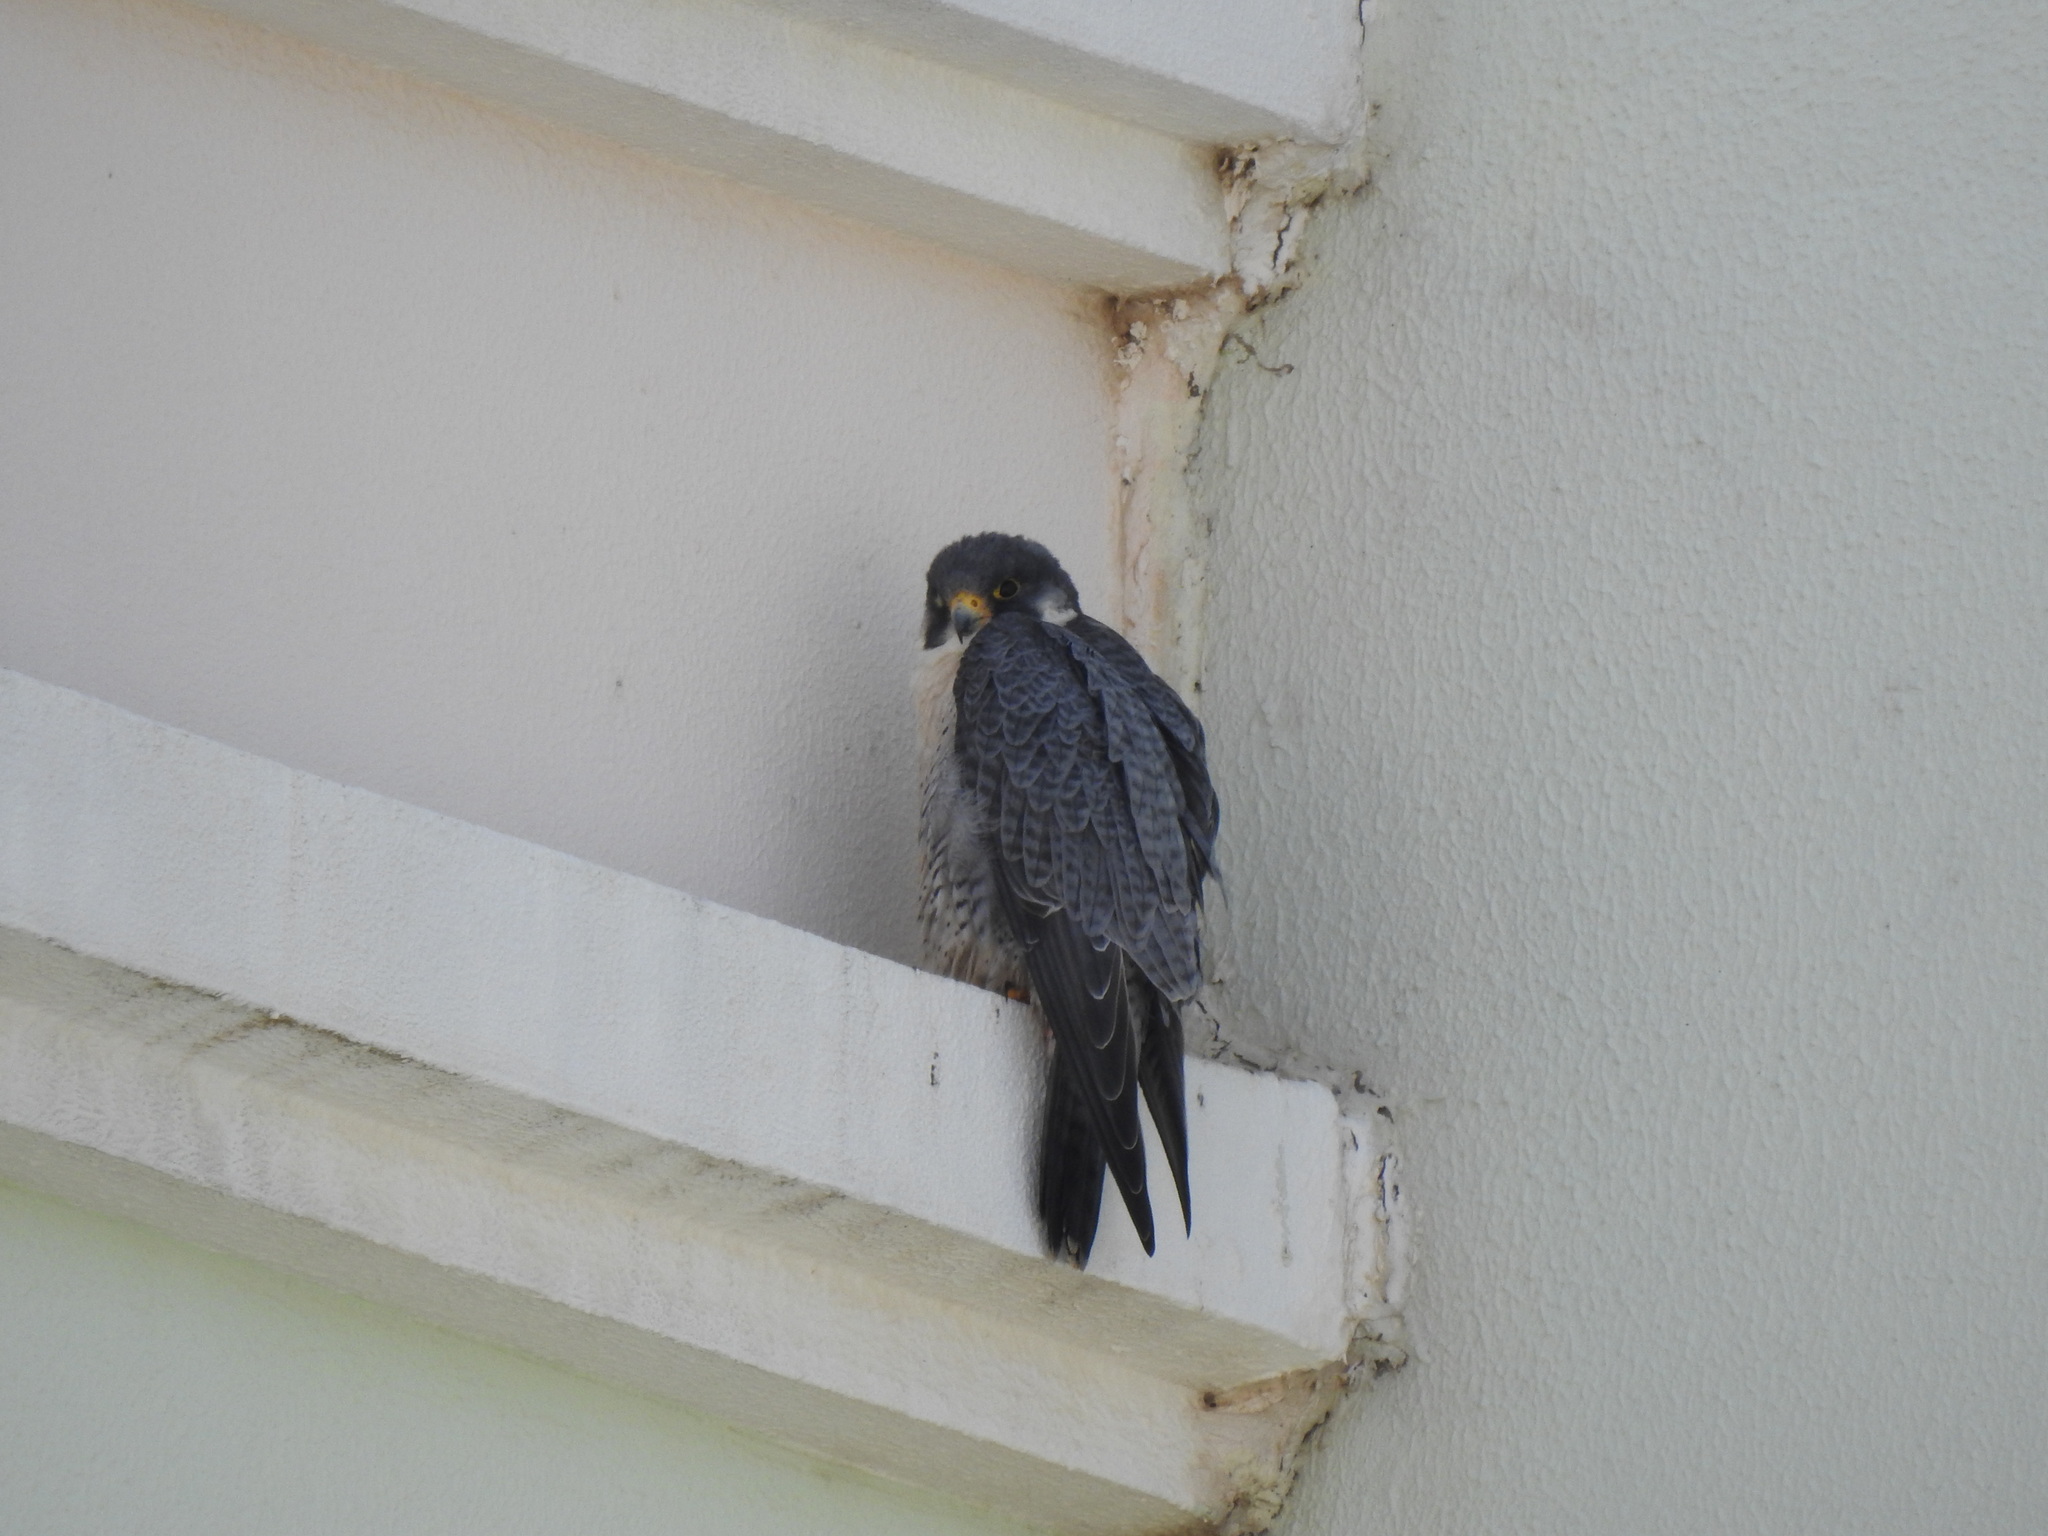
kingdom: Animalia
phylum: Chordata
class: Aves
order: Falconiformes
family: Falconidae
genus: Falco
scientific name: Falco peregrinus
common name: Peregrine falcon
